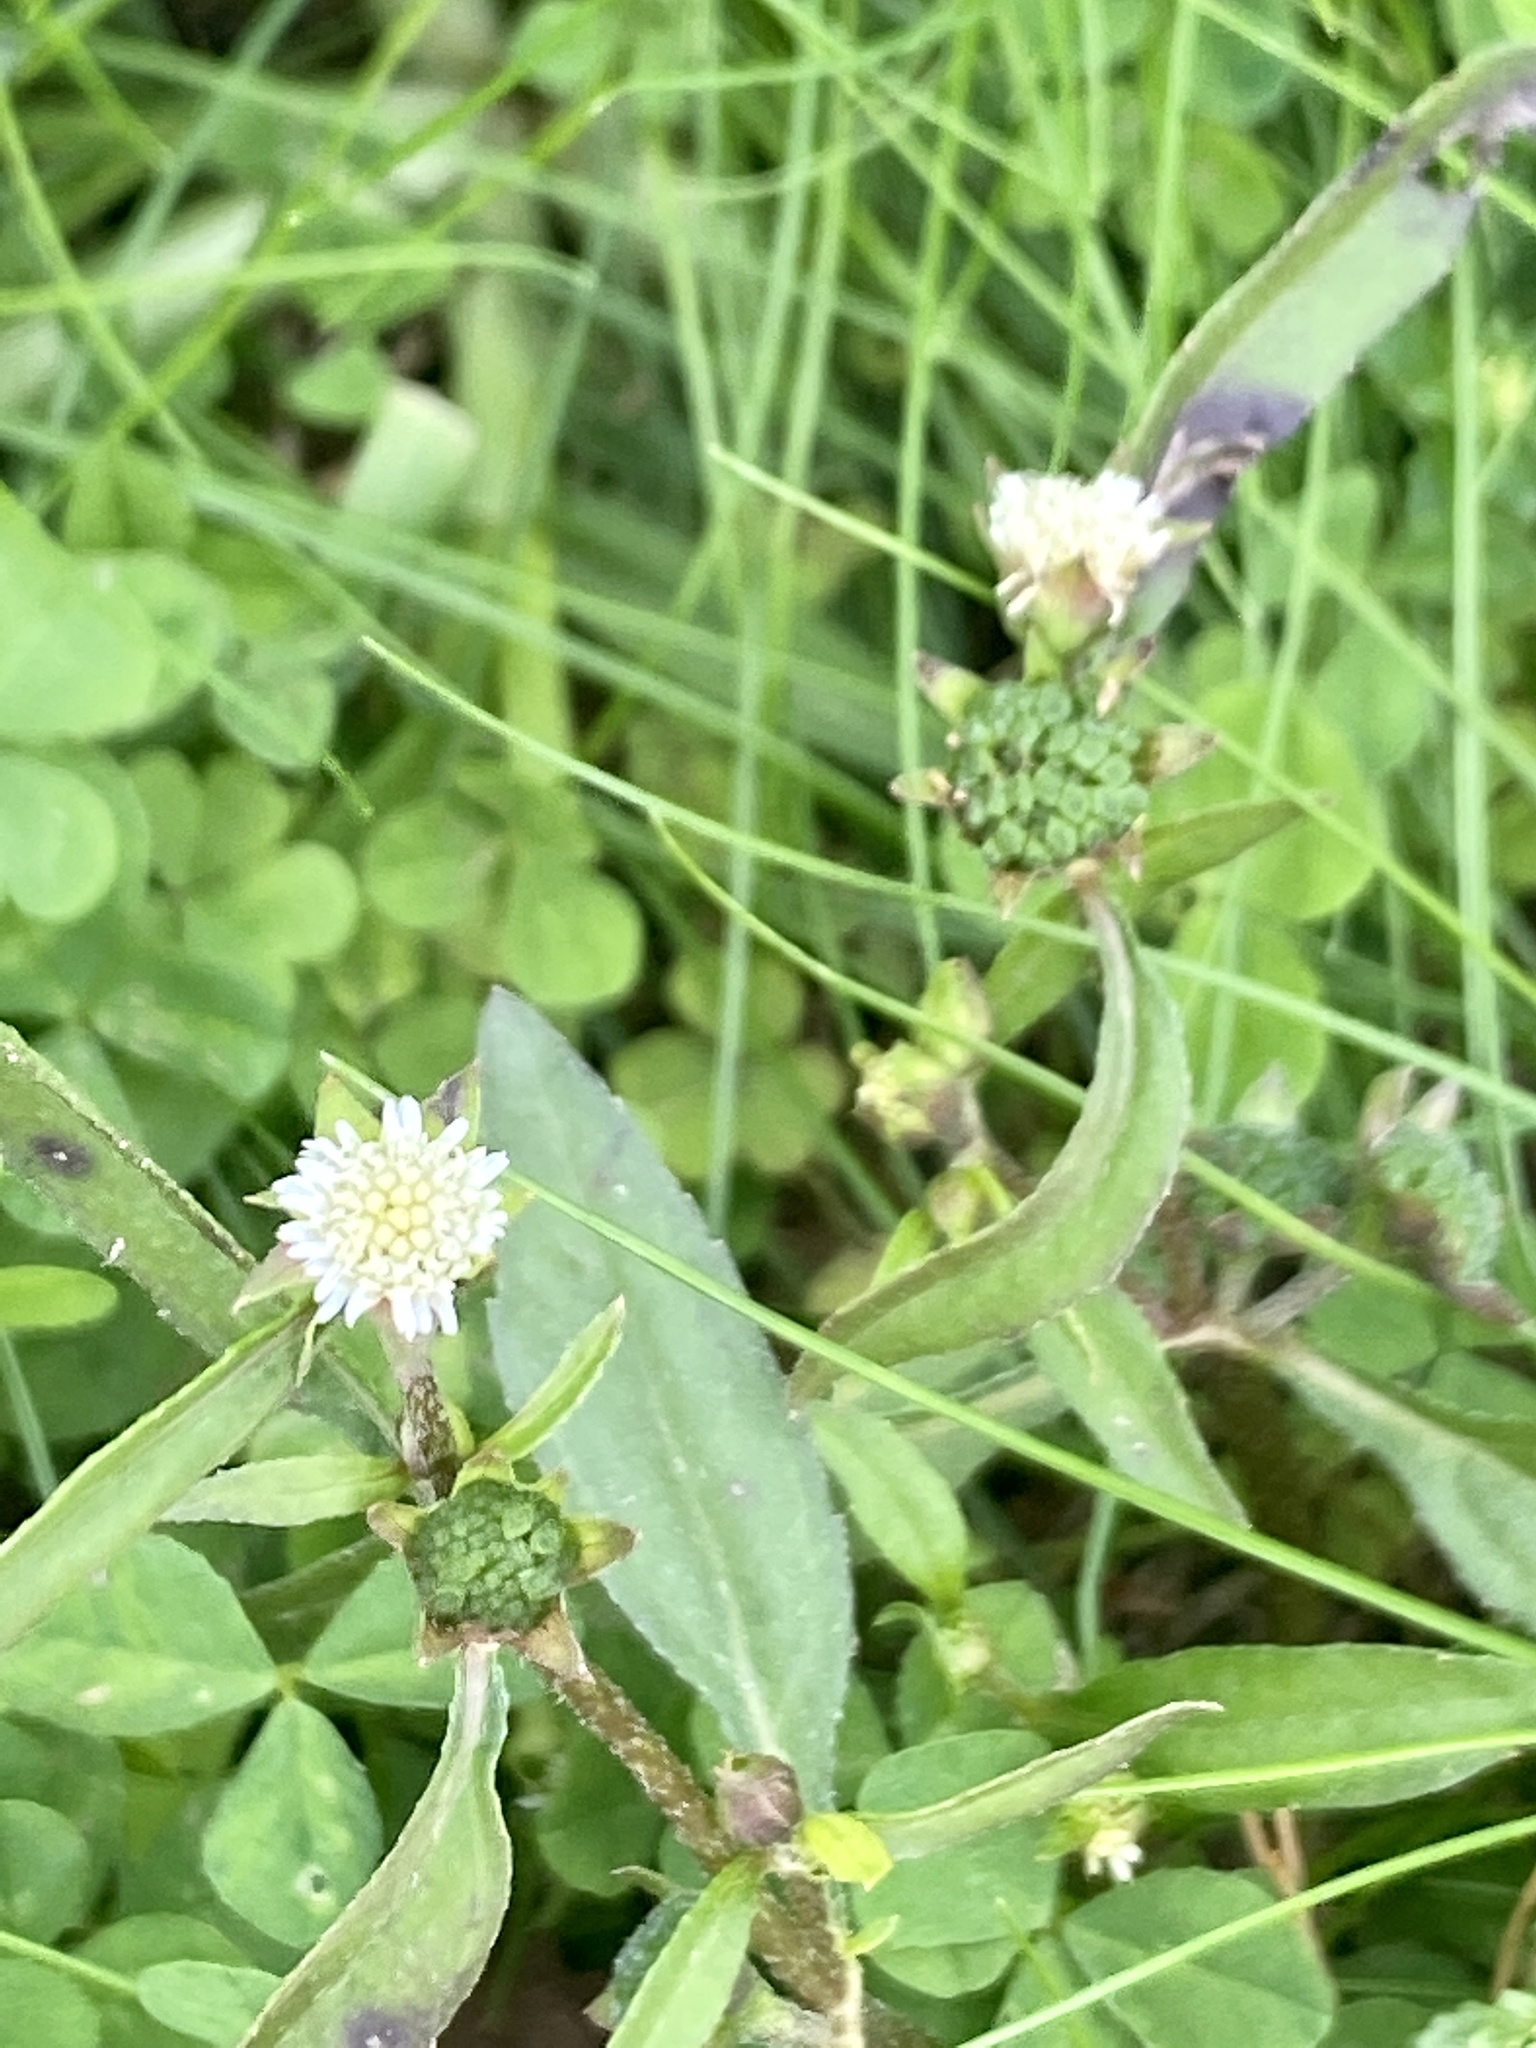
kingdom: Plantae
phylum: Tracheophyta
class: Magnoliopsida
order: Asterales
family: Asteraceae
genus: Eclipta
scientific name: Eclipta prostrata
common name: False daisy
